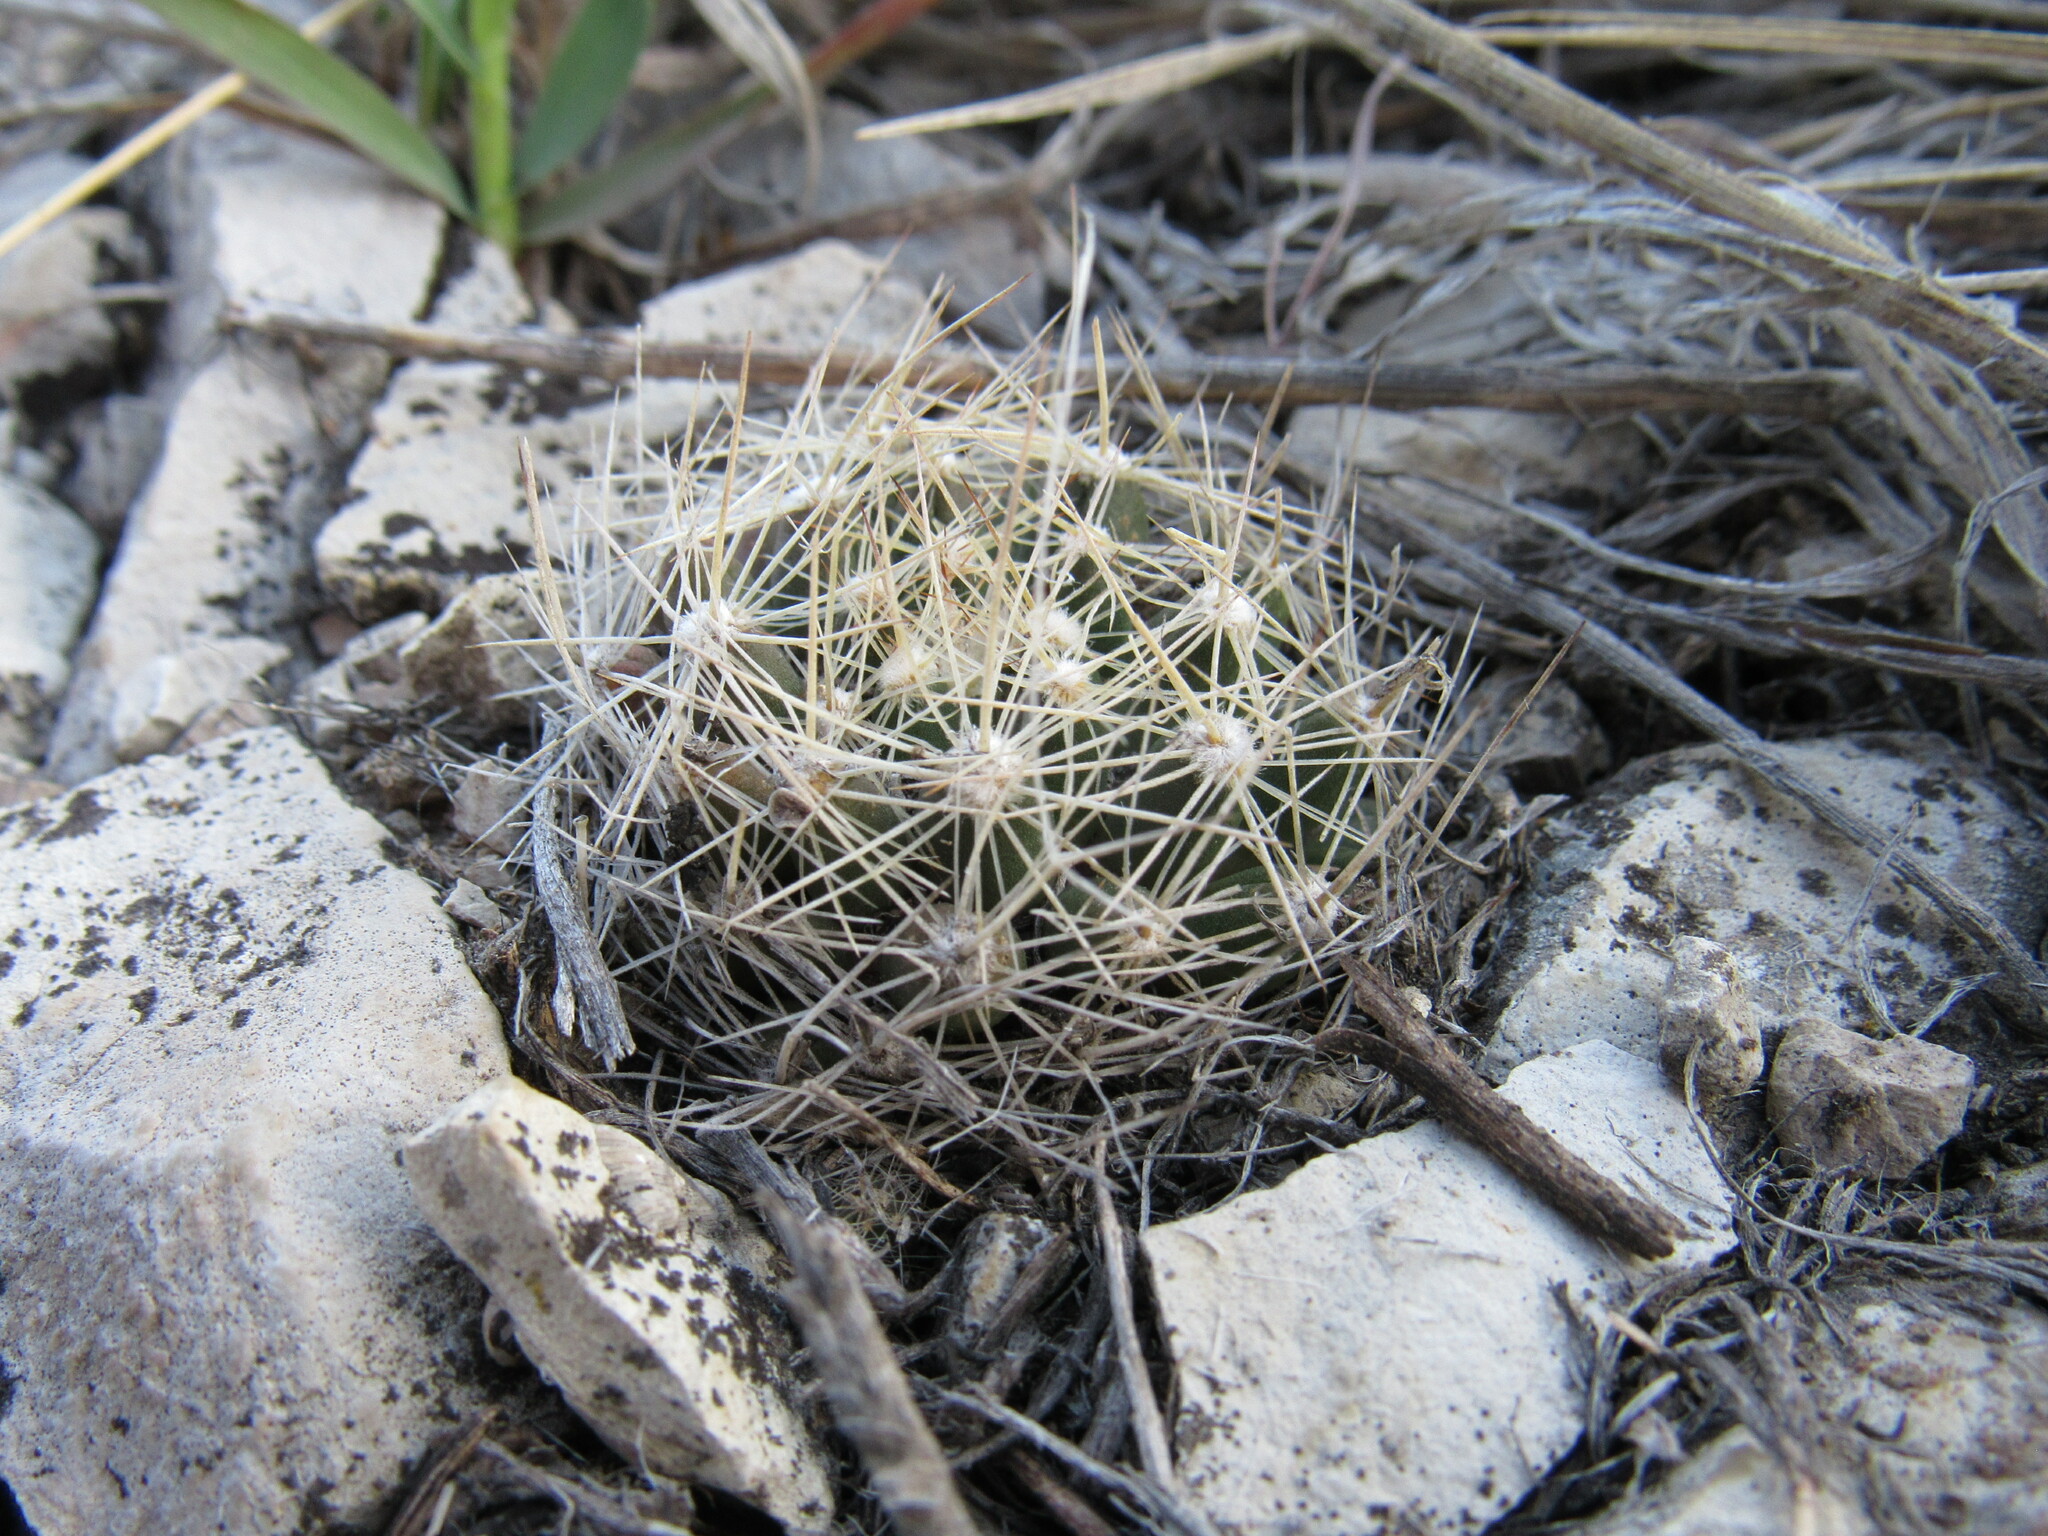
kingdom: Plantae
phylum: Tracheophyta
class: Magnoliopsida
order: Caryophyllales
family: Cactaceae
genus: Pelecyphora
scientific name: Pelecyphora missouriensis
